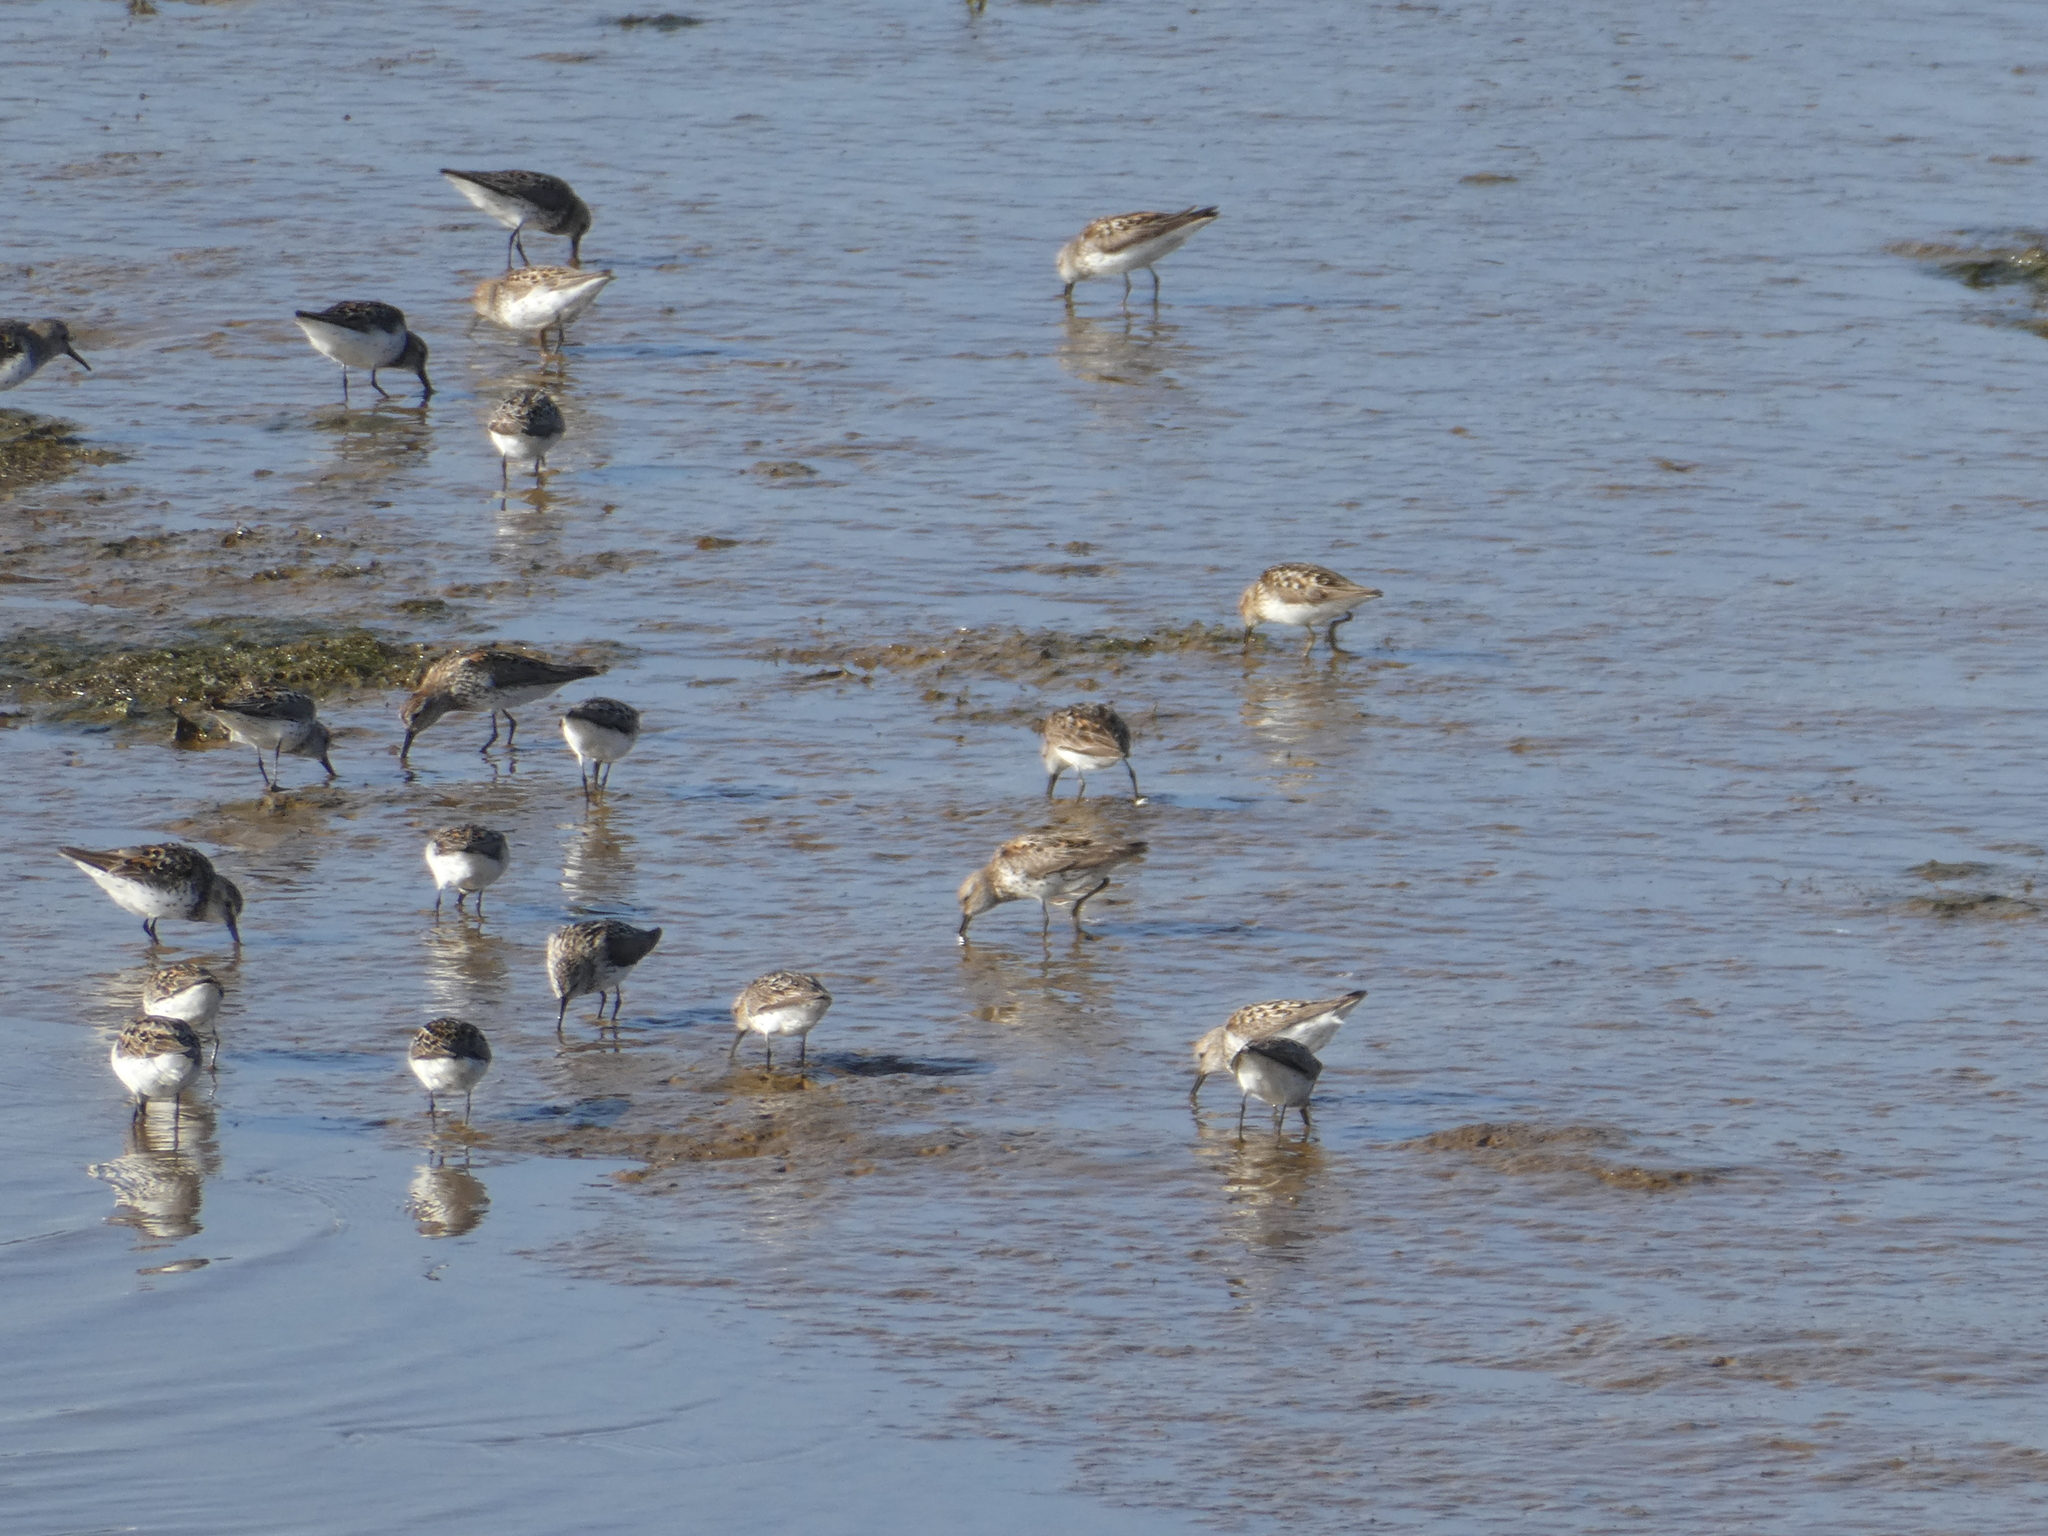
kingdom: Animalia
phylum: Chordata
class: Aves
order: Charadriiformes
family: Scolopacidae
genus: Calidris
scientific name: Calidris mauri
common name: Western sandpiper
